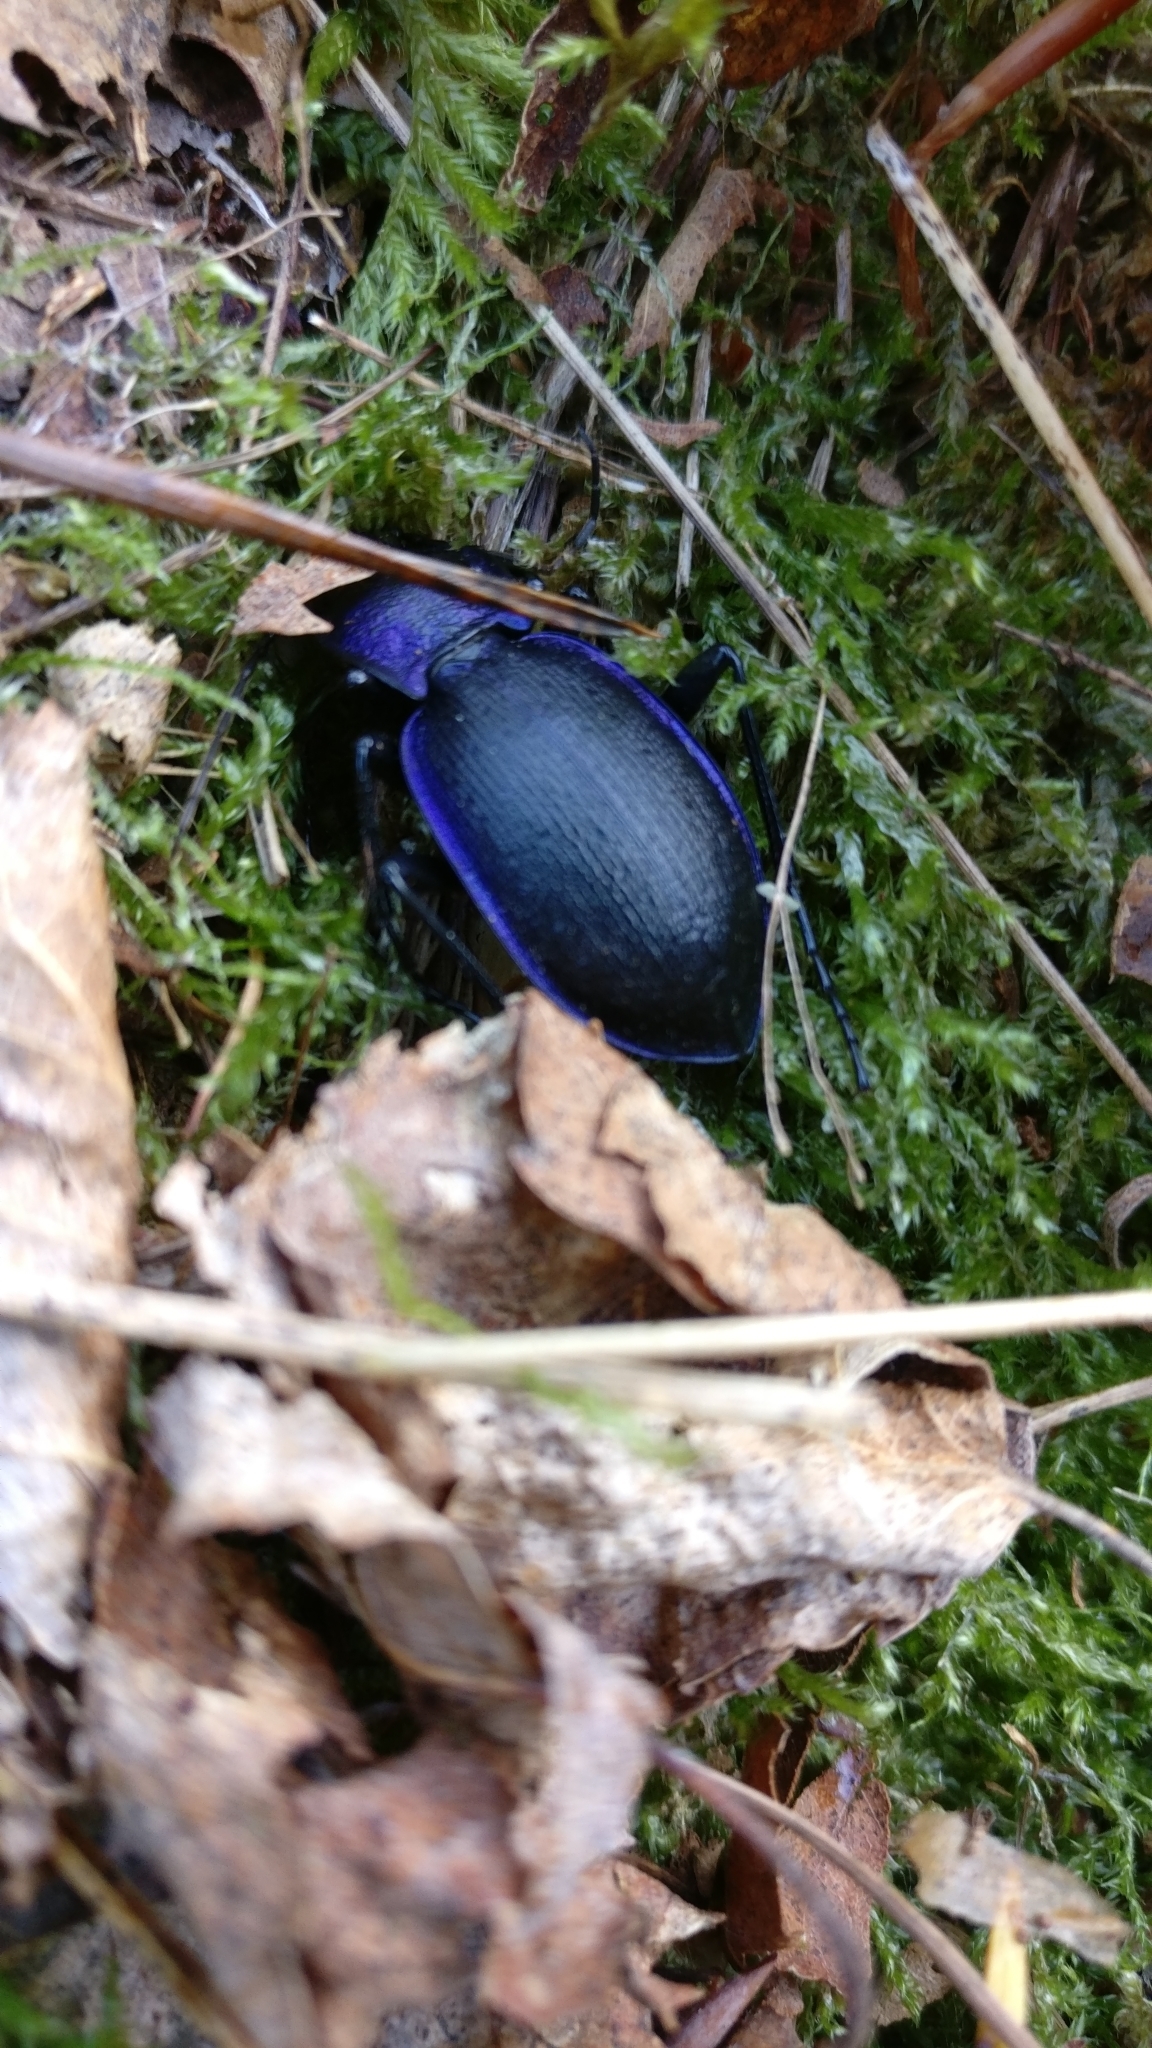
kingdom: Animalia
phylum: Arthropoda
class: Insecta
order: Coleoptera
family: Carabidae
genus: Carabus
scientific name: Carabus problematicus
